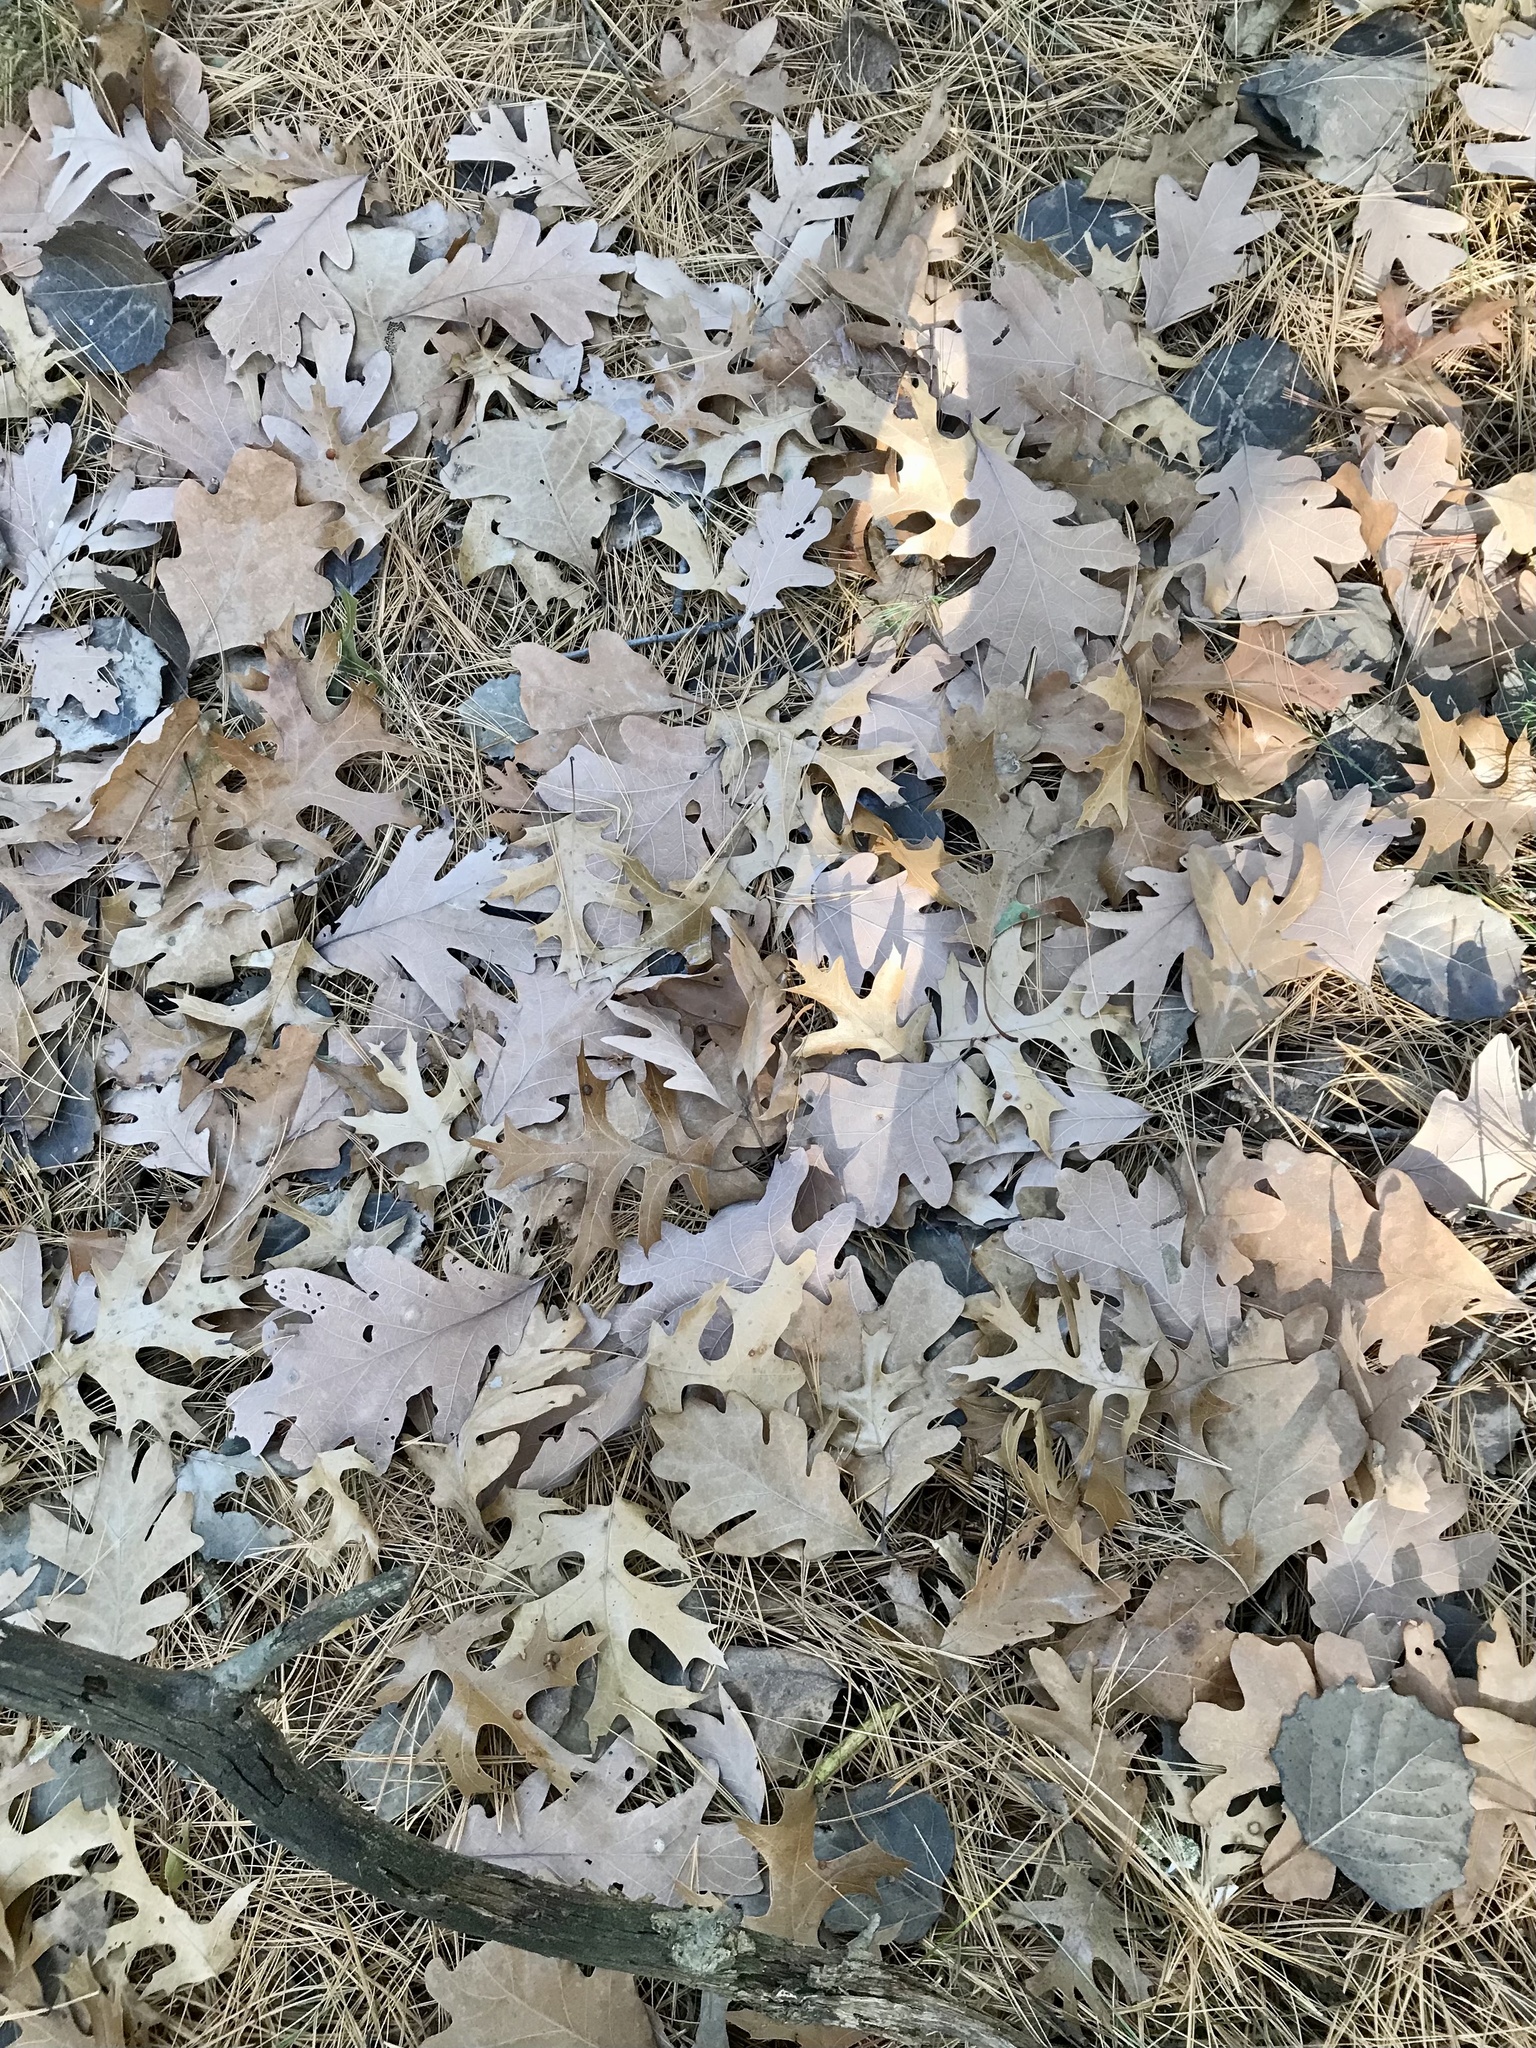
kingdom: Plantae
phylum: Tracheophyta
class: Magnoliopsida
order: Fagales
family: Fagaceae
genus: Quercus
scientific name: Quercus alba
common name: White oak
